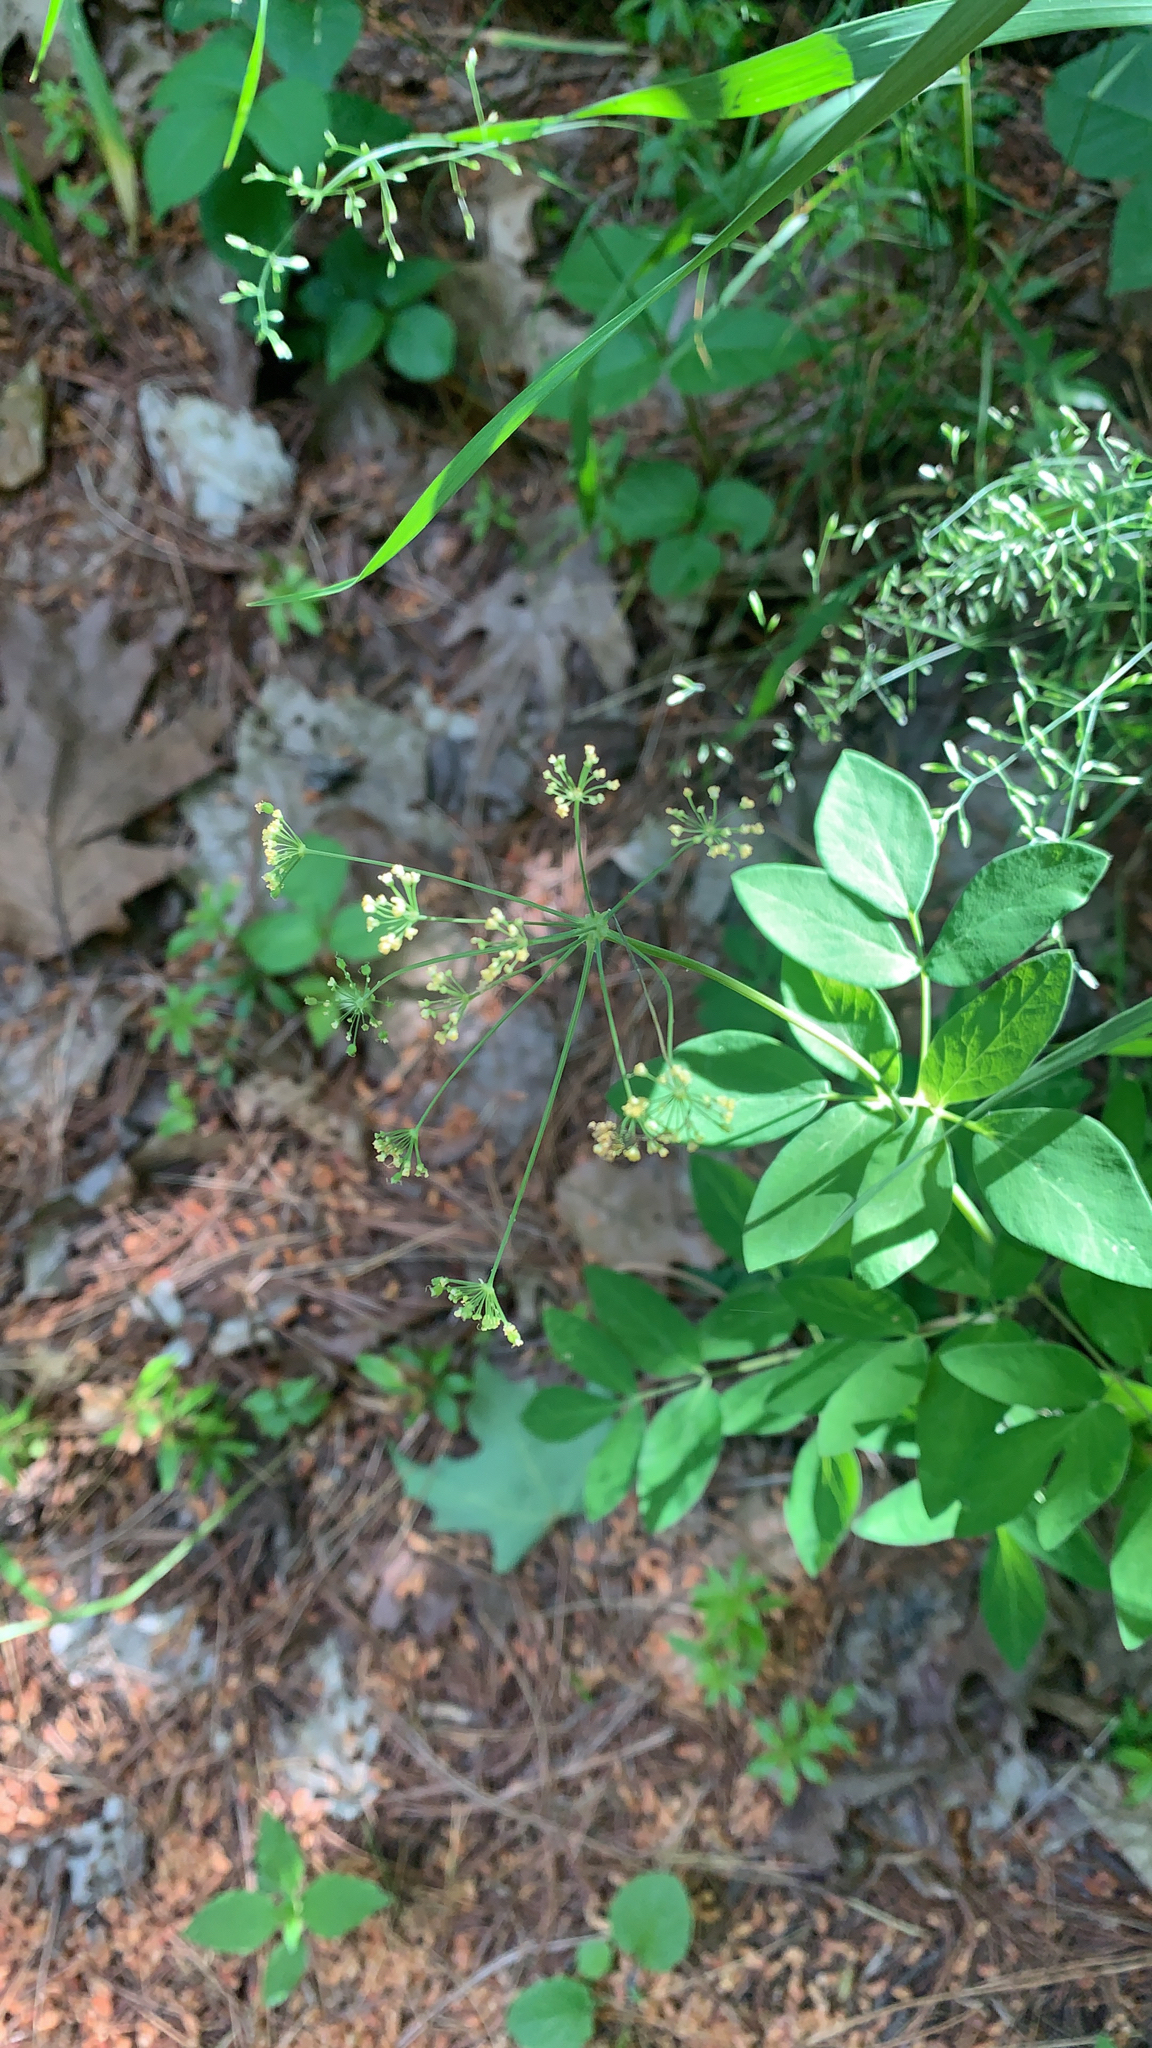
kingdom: Plantae
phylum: Tracheophyta
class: Magnoliopsida
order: Apiales
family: Apiaceae
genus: Taenidia
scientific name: Taenidia integerrima
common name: Golden alexander
